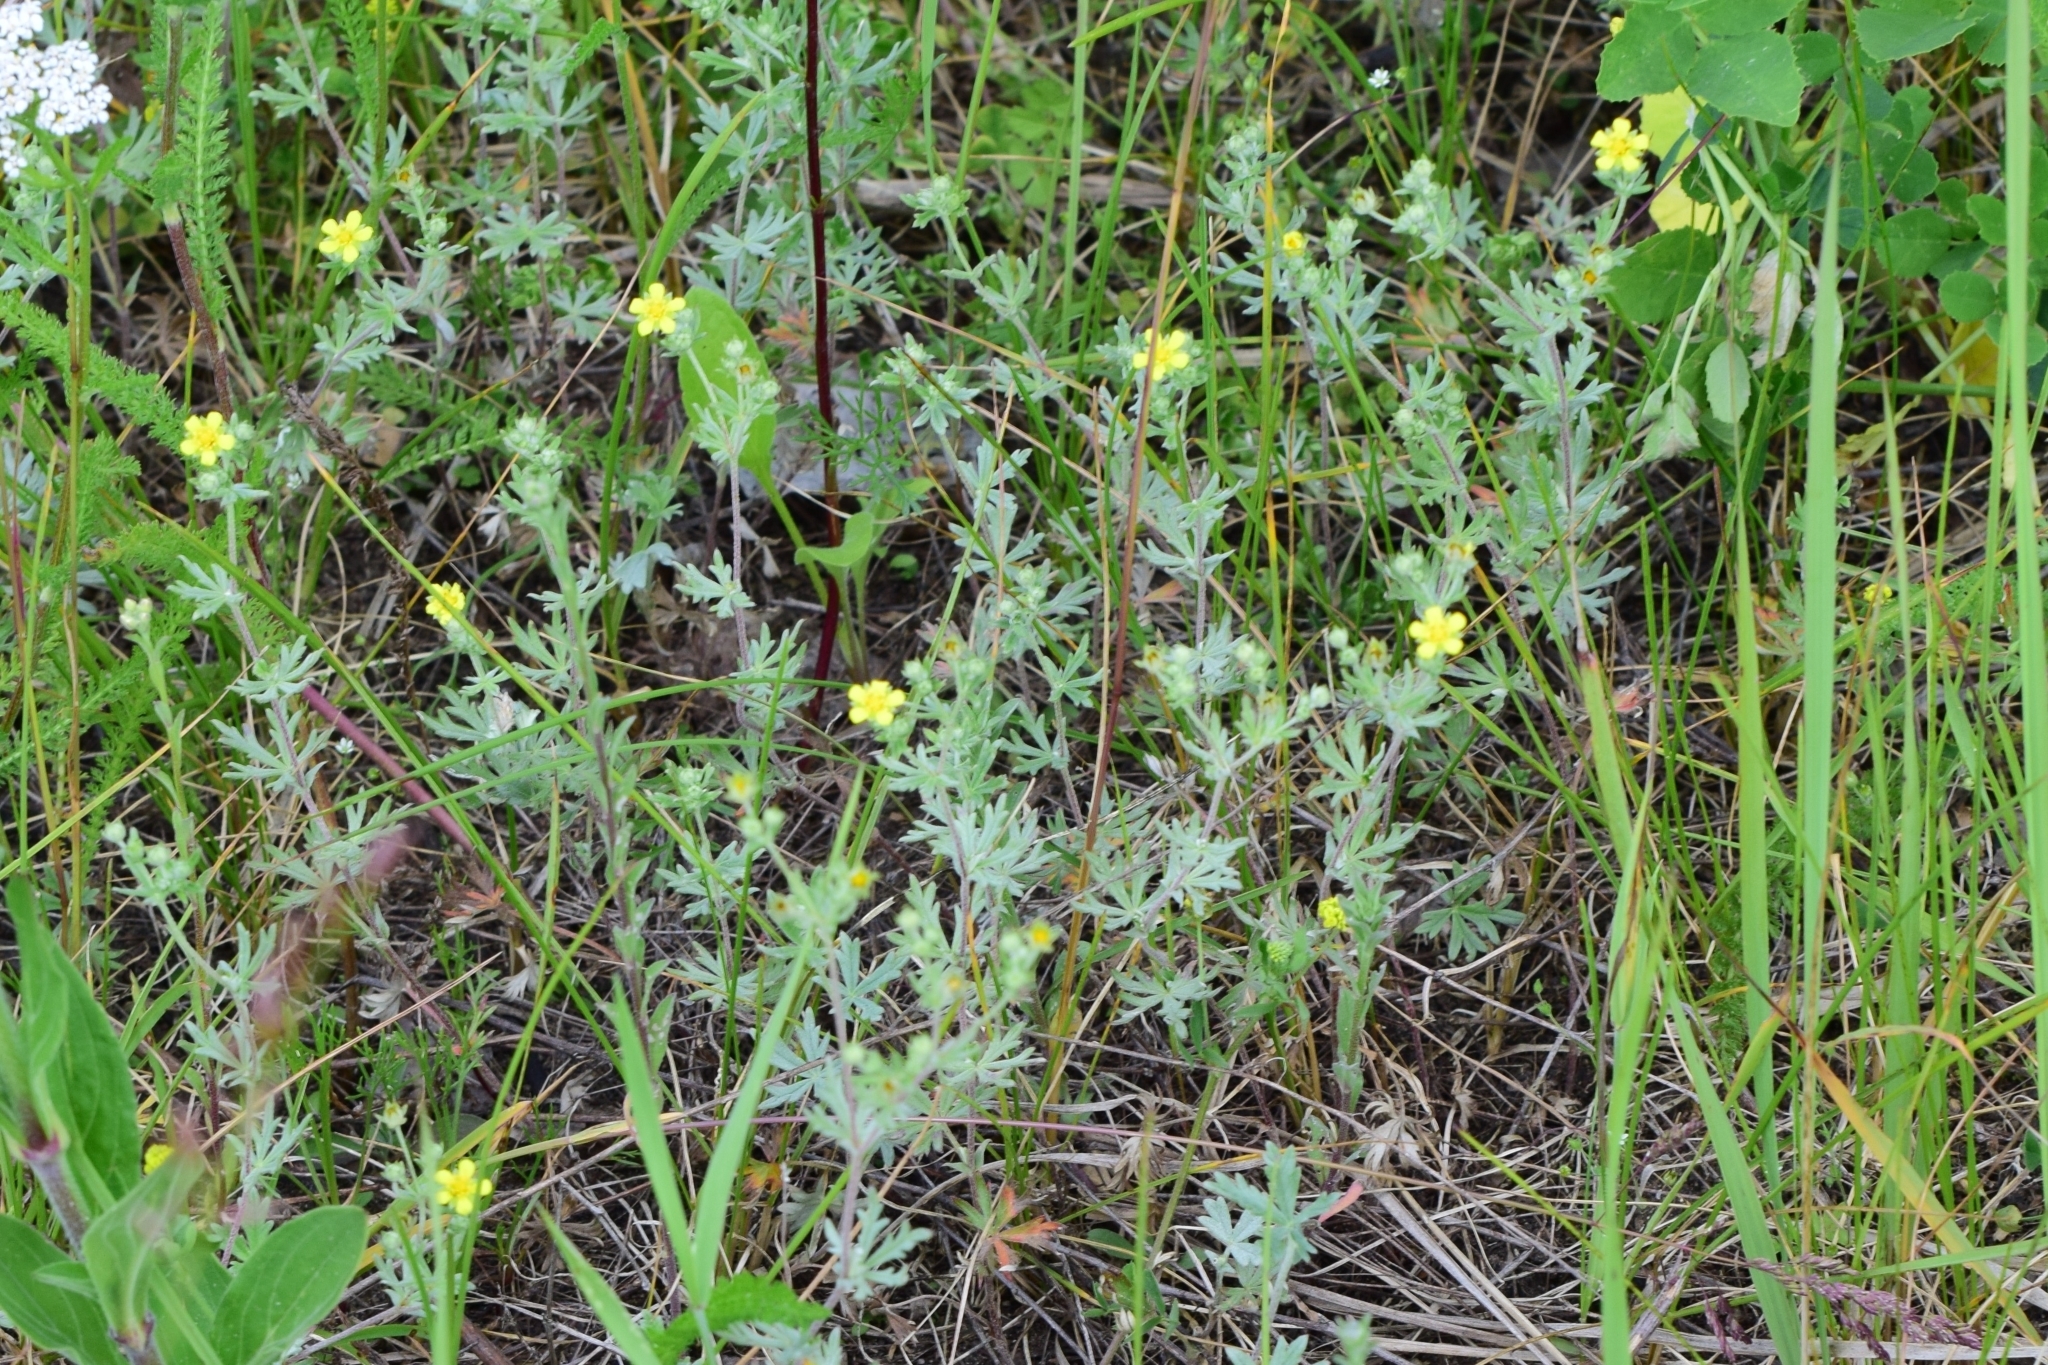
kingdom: Plantae
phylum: Tracheophyta
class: Magnoliopsida
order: Rosales
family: Rosaceae
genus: Potentilla
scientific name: Potentilla argentea
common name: Hoary cinquefoil
